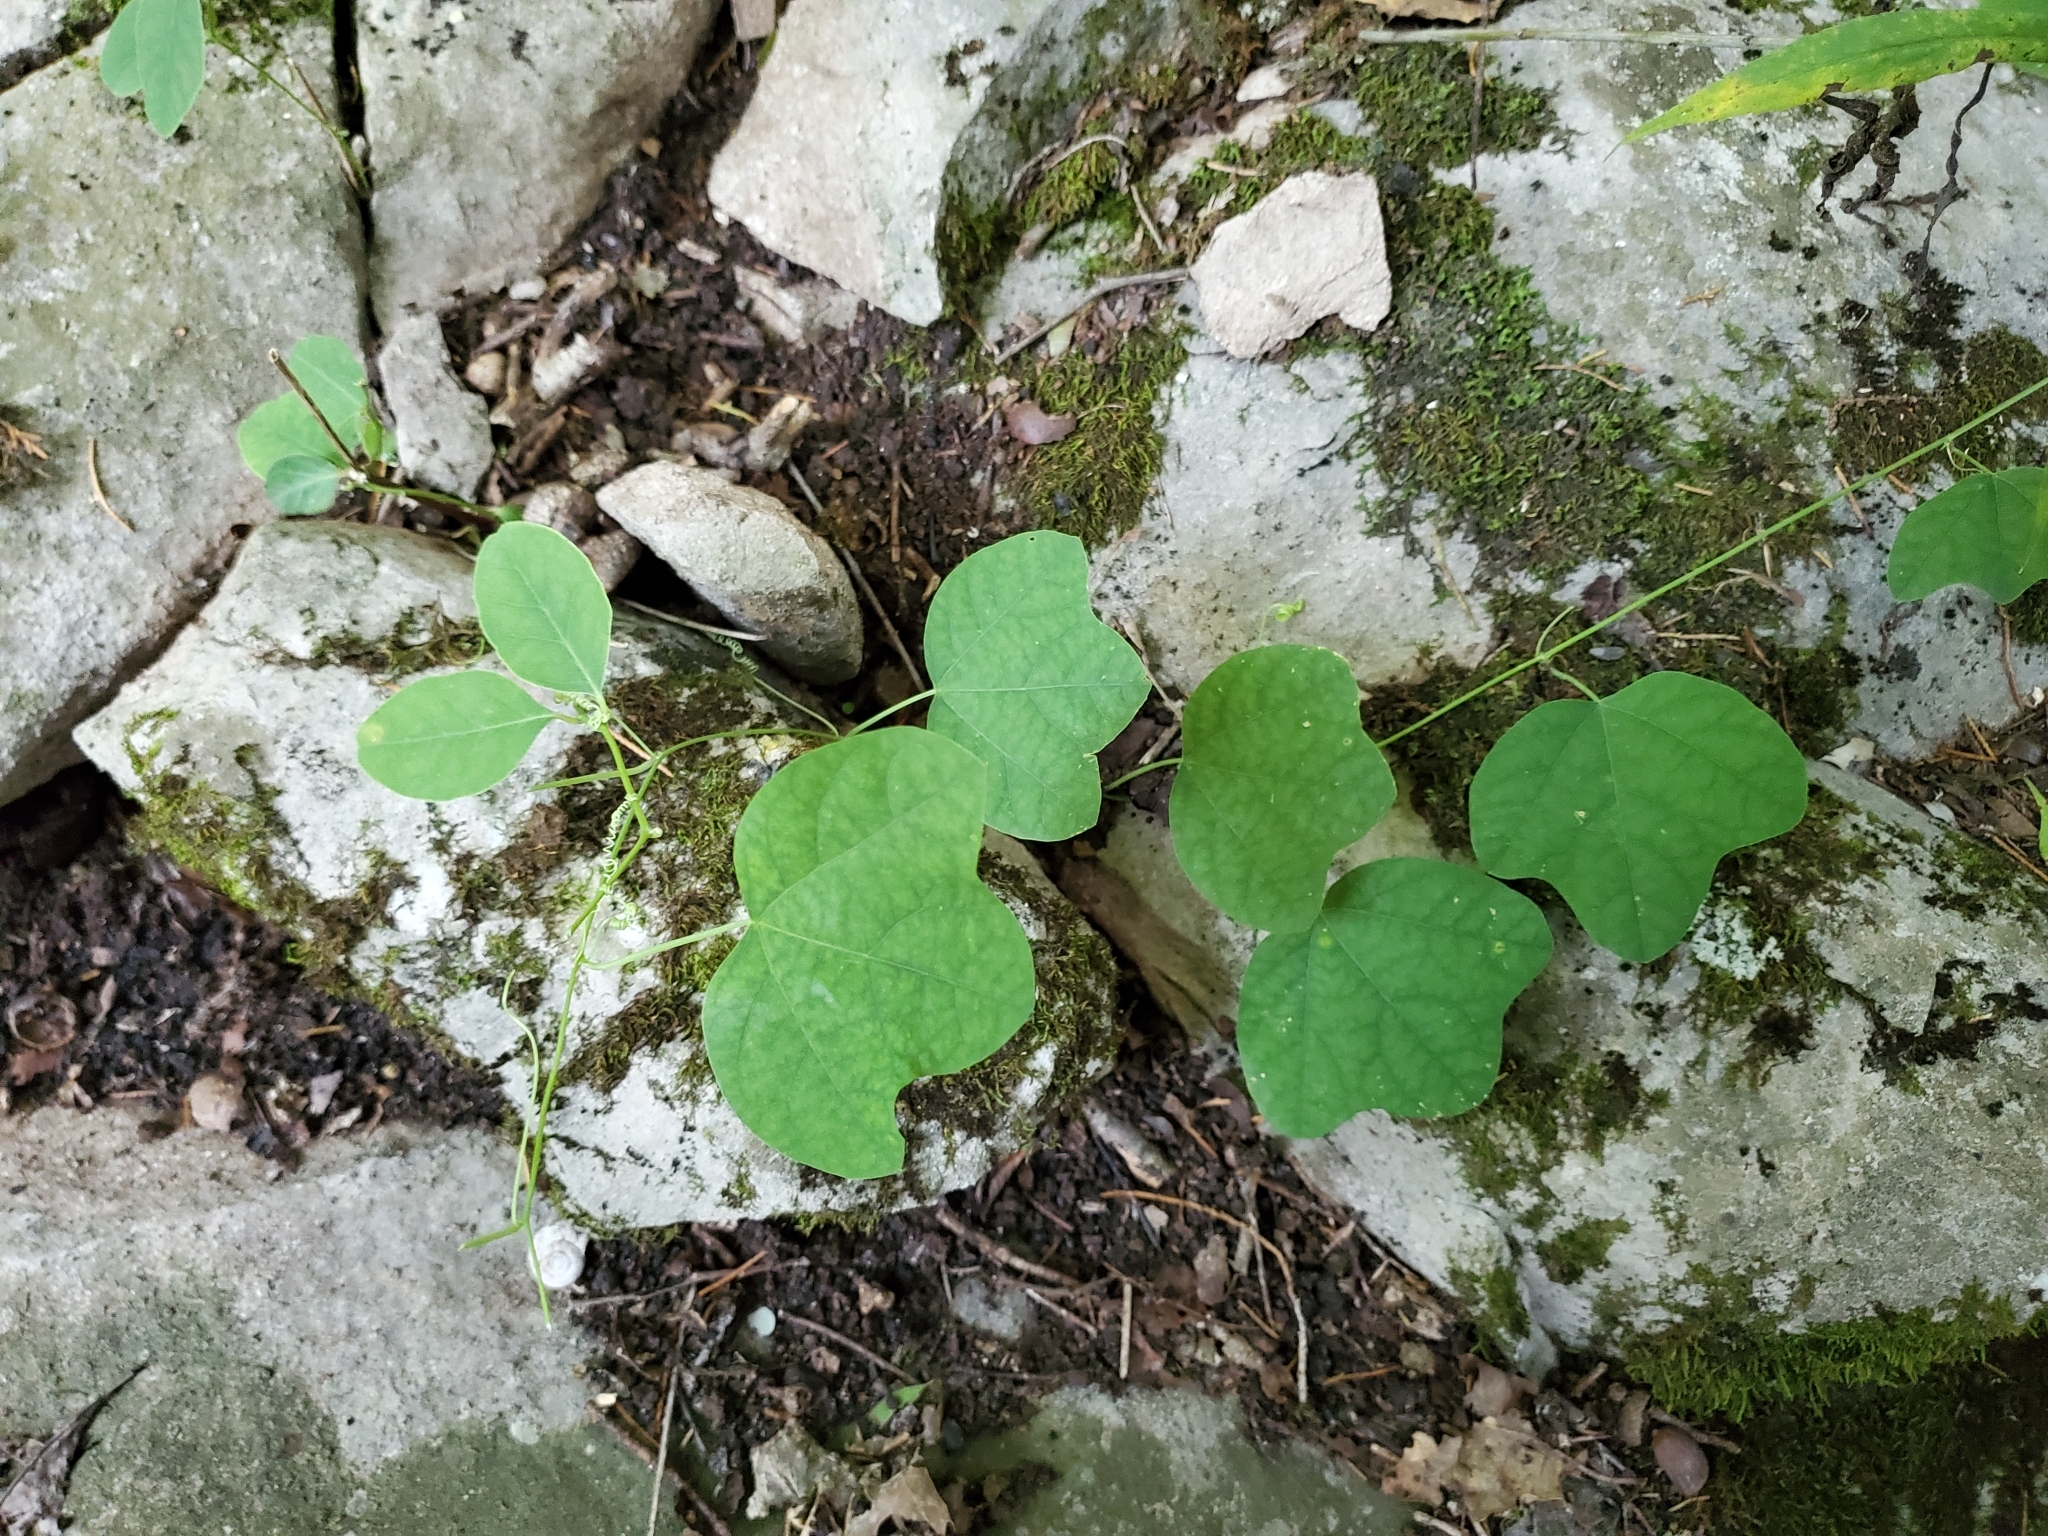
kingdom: Plantae
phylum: Tracheophyta
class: Magnoliopsida
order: Malpighiales
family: Passifloraceae
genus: Passiflora
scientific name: Passiflora lutea
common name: Yellow passionflower
